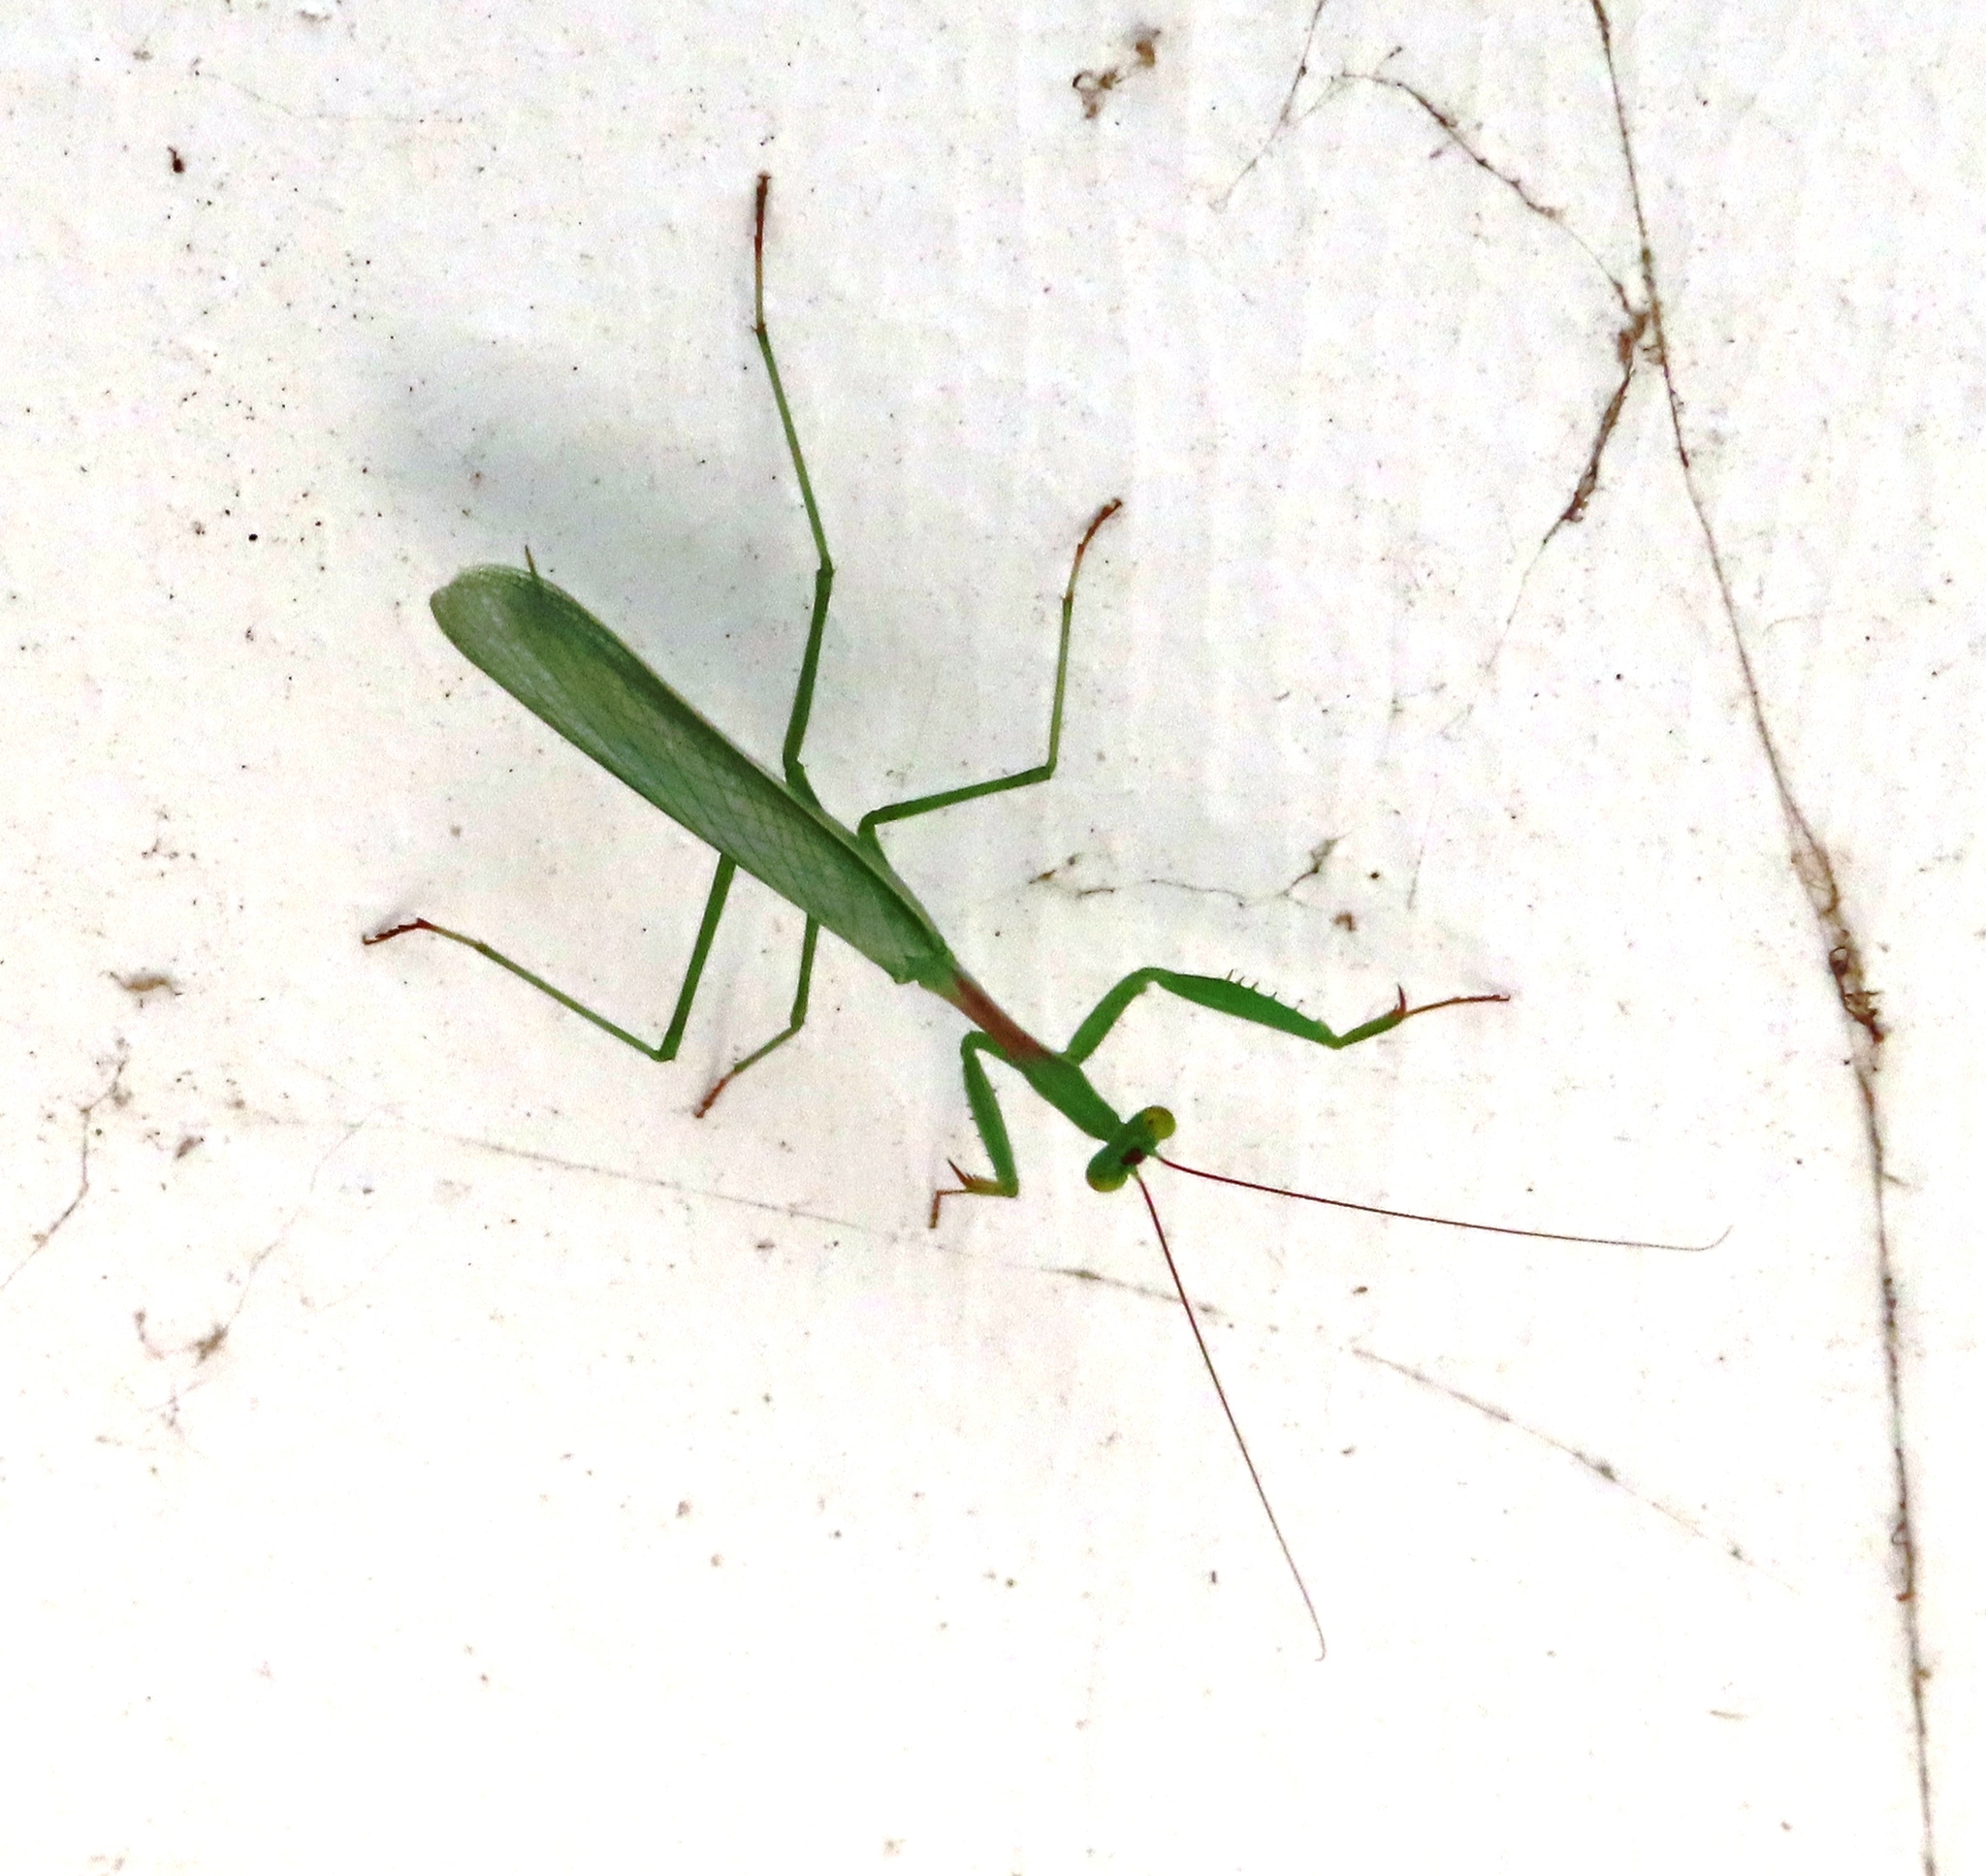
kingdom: Animalia
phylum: Arthropoda
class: Insecta
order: Mantodea
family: Miomantidae
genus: Miomantis
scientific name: Miomantis caffra
